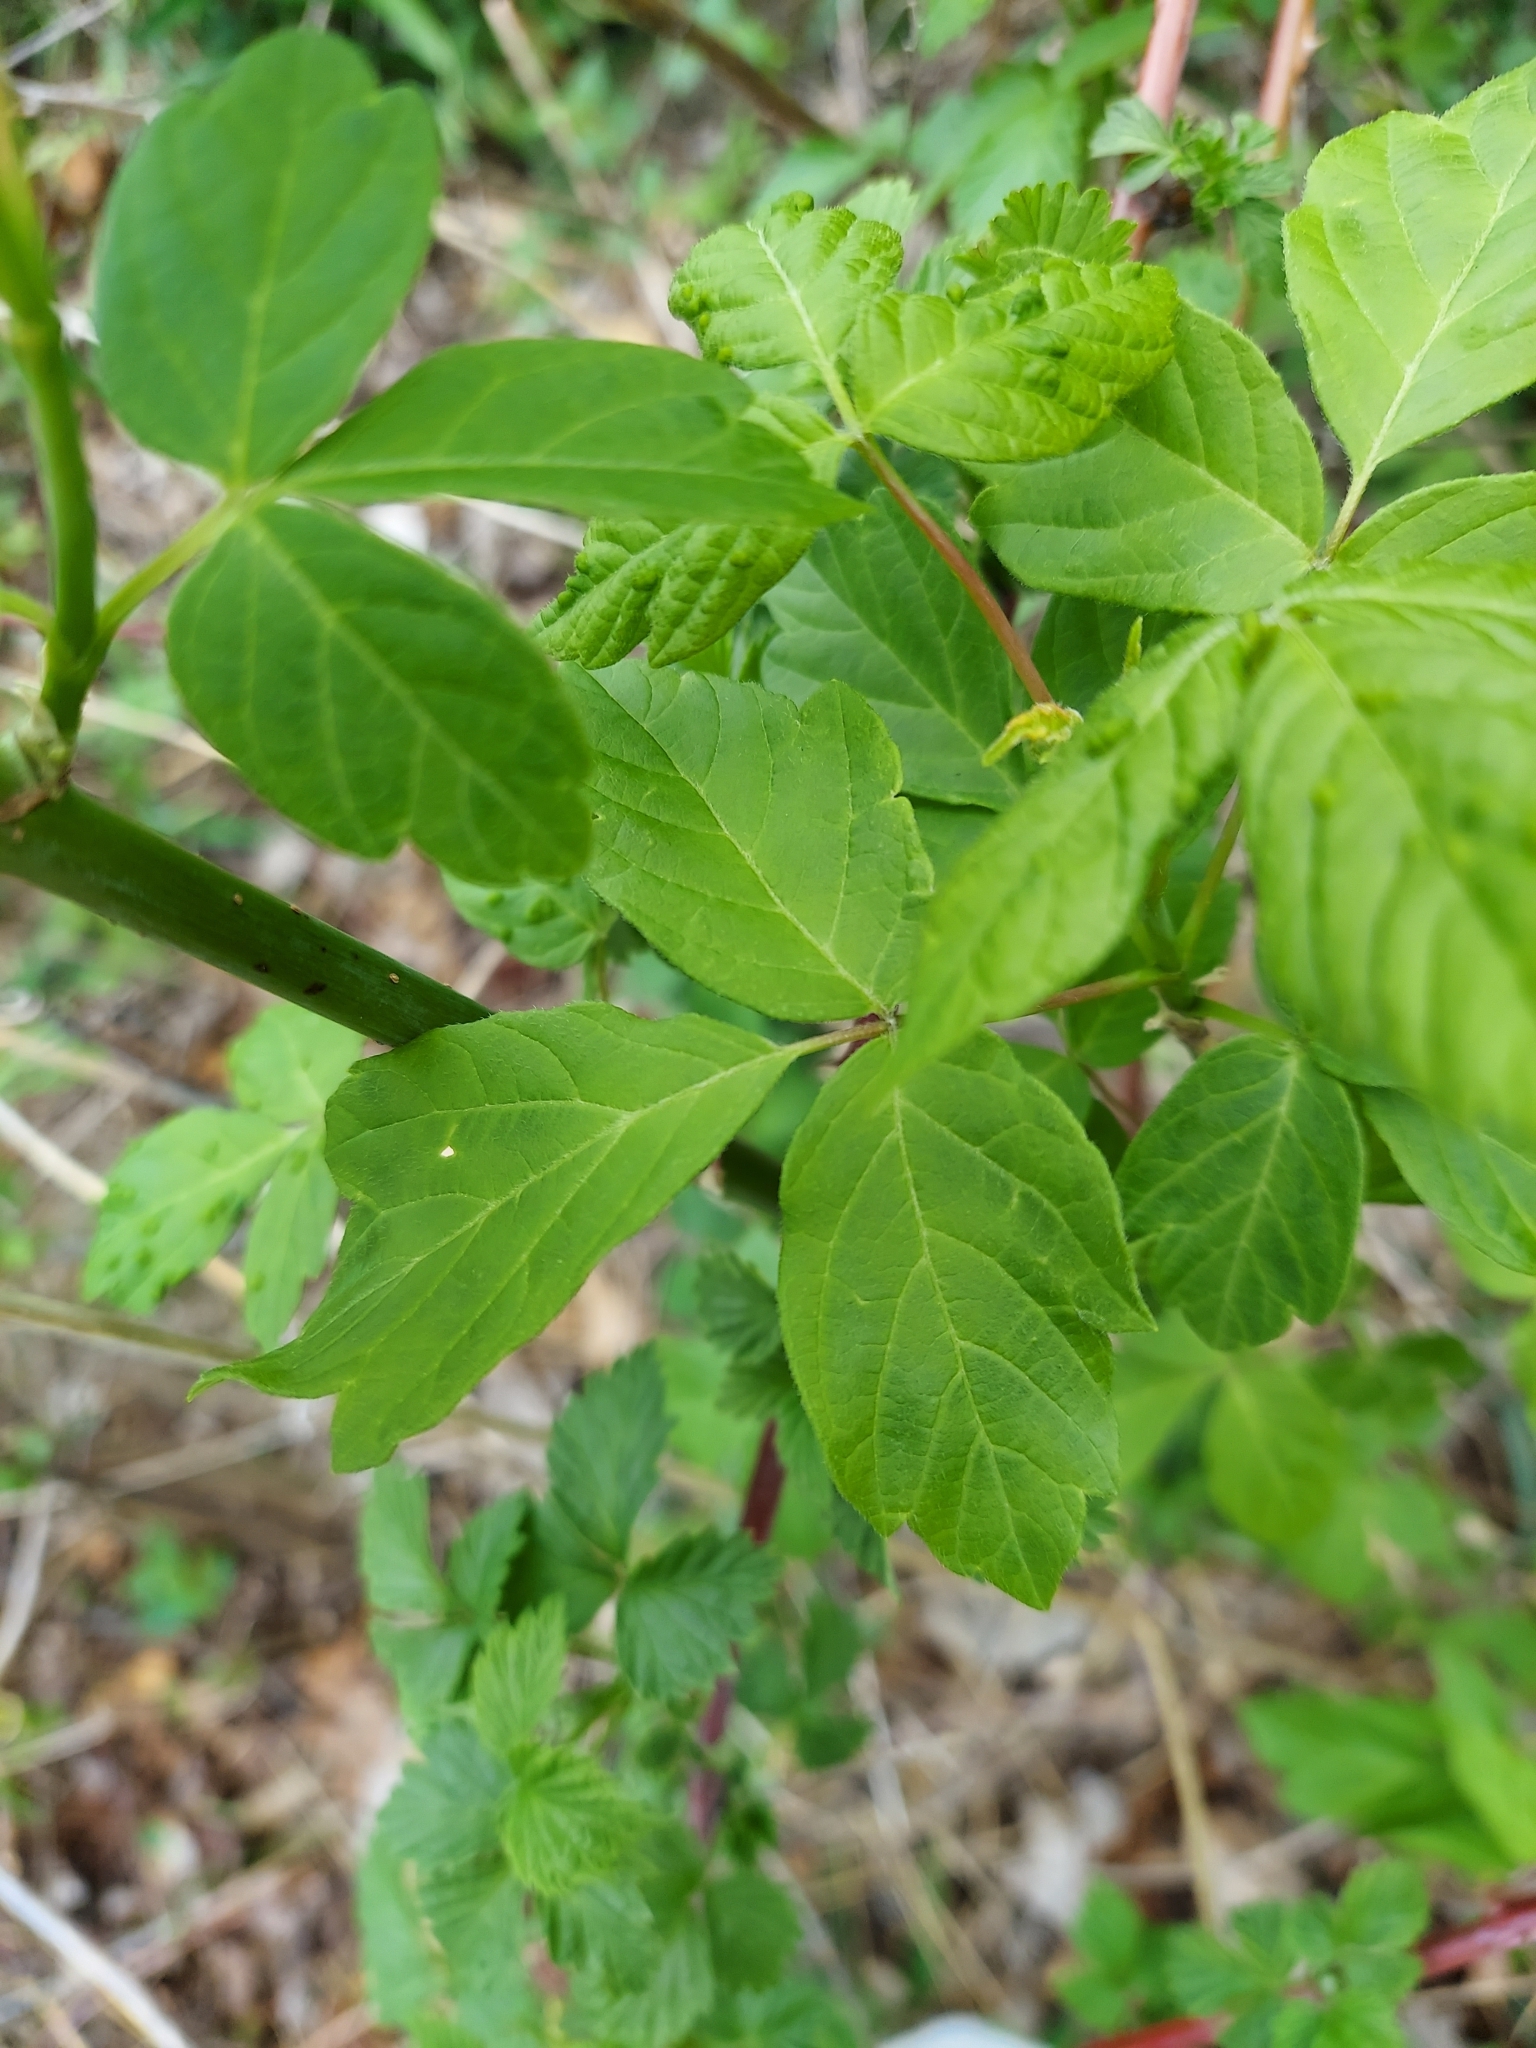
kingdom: Plantae
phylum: Tracheophyta
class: Magnoliopsida
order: Sapindales
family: Sapindaceae
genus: Acer
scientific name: Acer negundo
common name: Ashleaf maple
